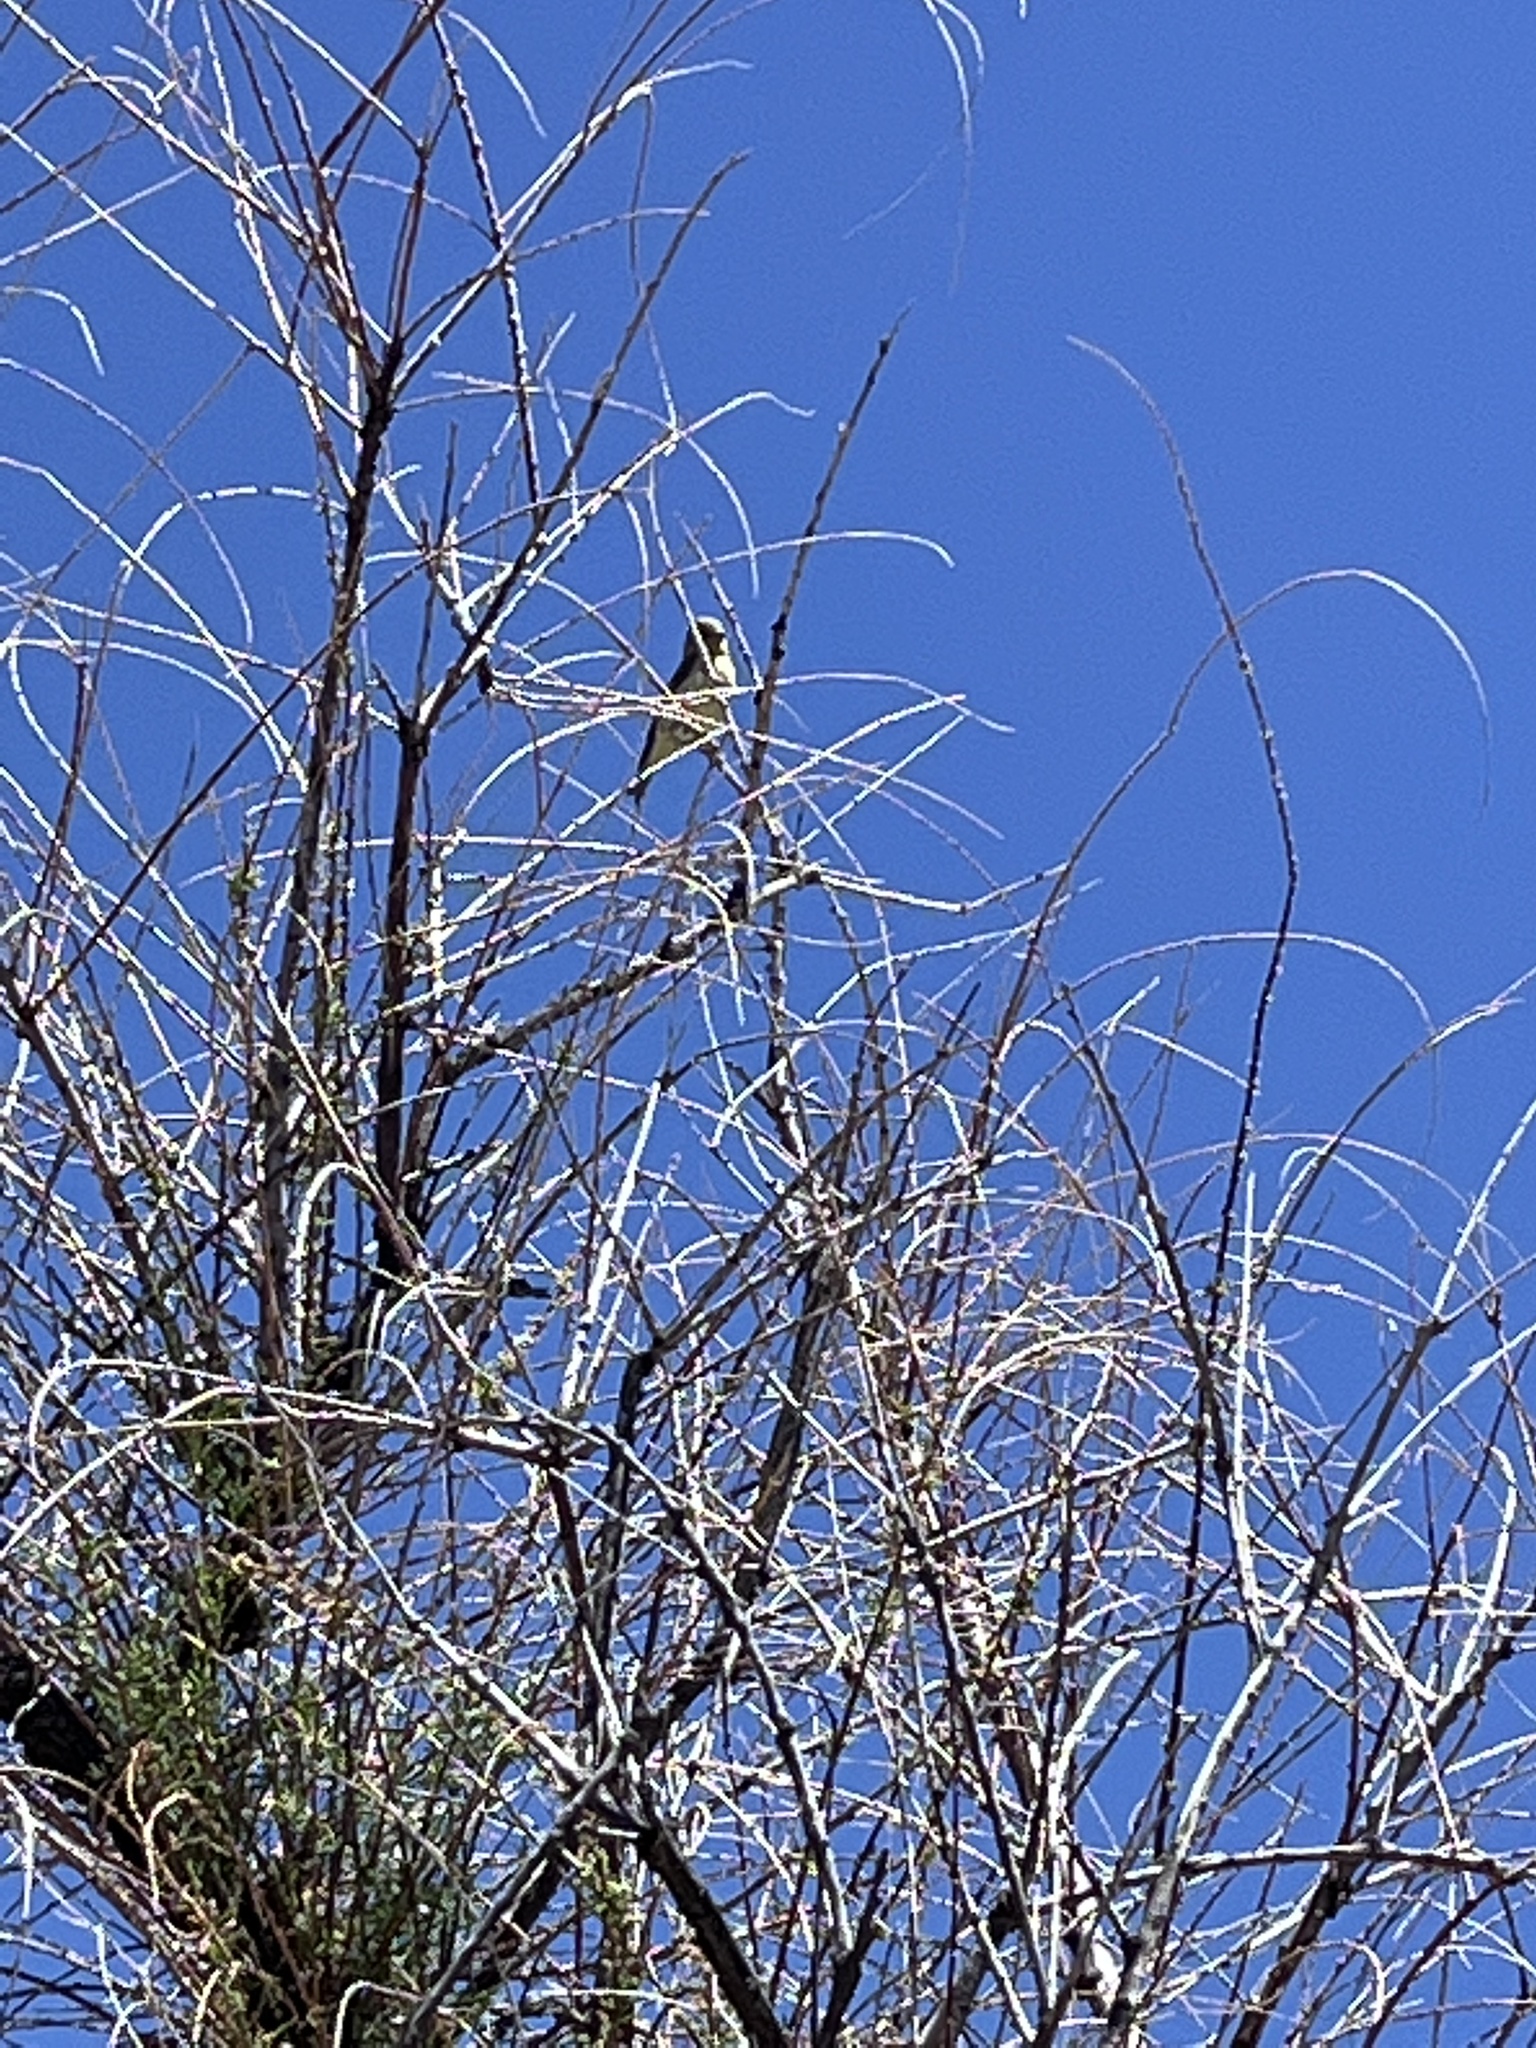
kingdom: Animalia
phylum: Chordata
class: Aves
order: Passeriformes
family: Fringillidae
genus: Spinus
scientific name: Spinus psaltria
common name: Lesser goldfinch
